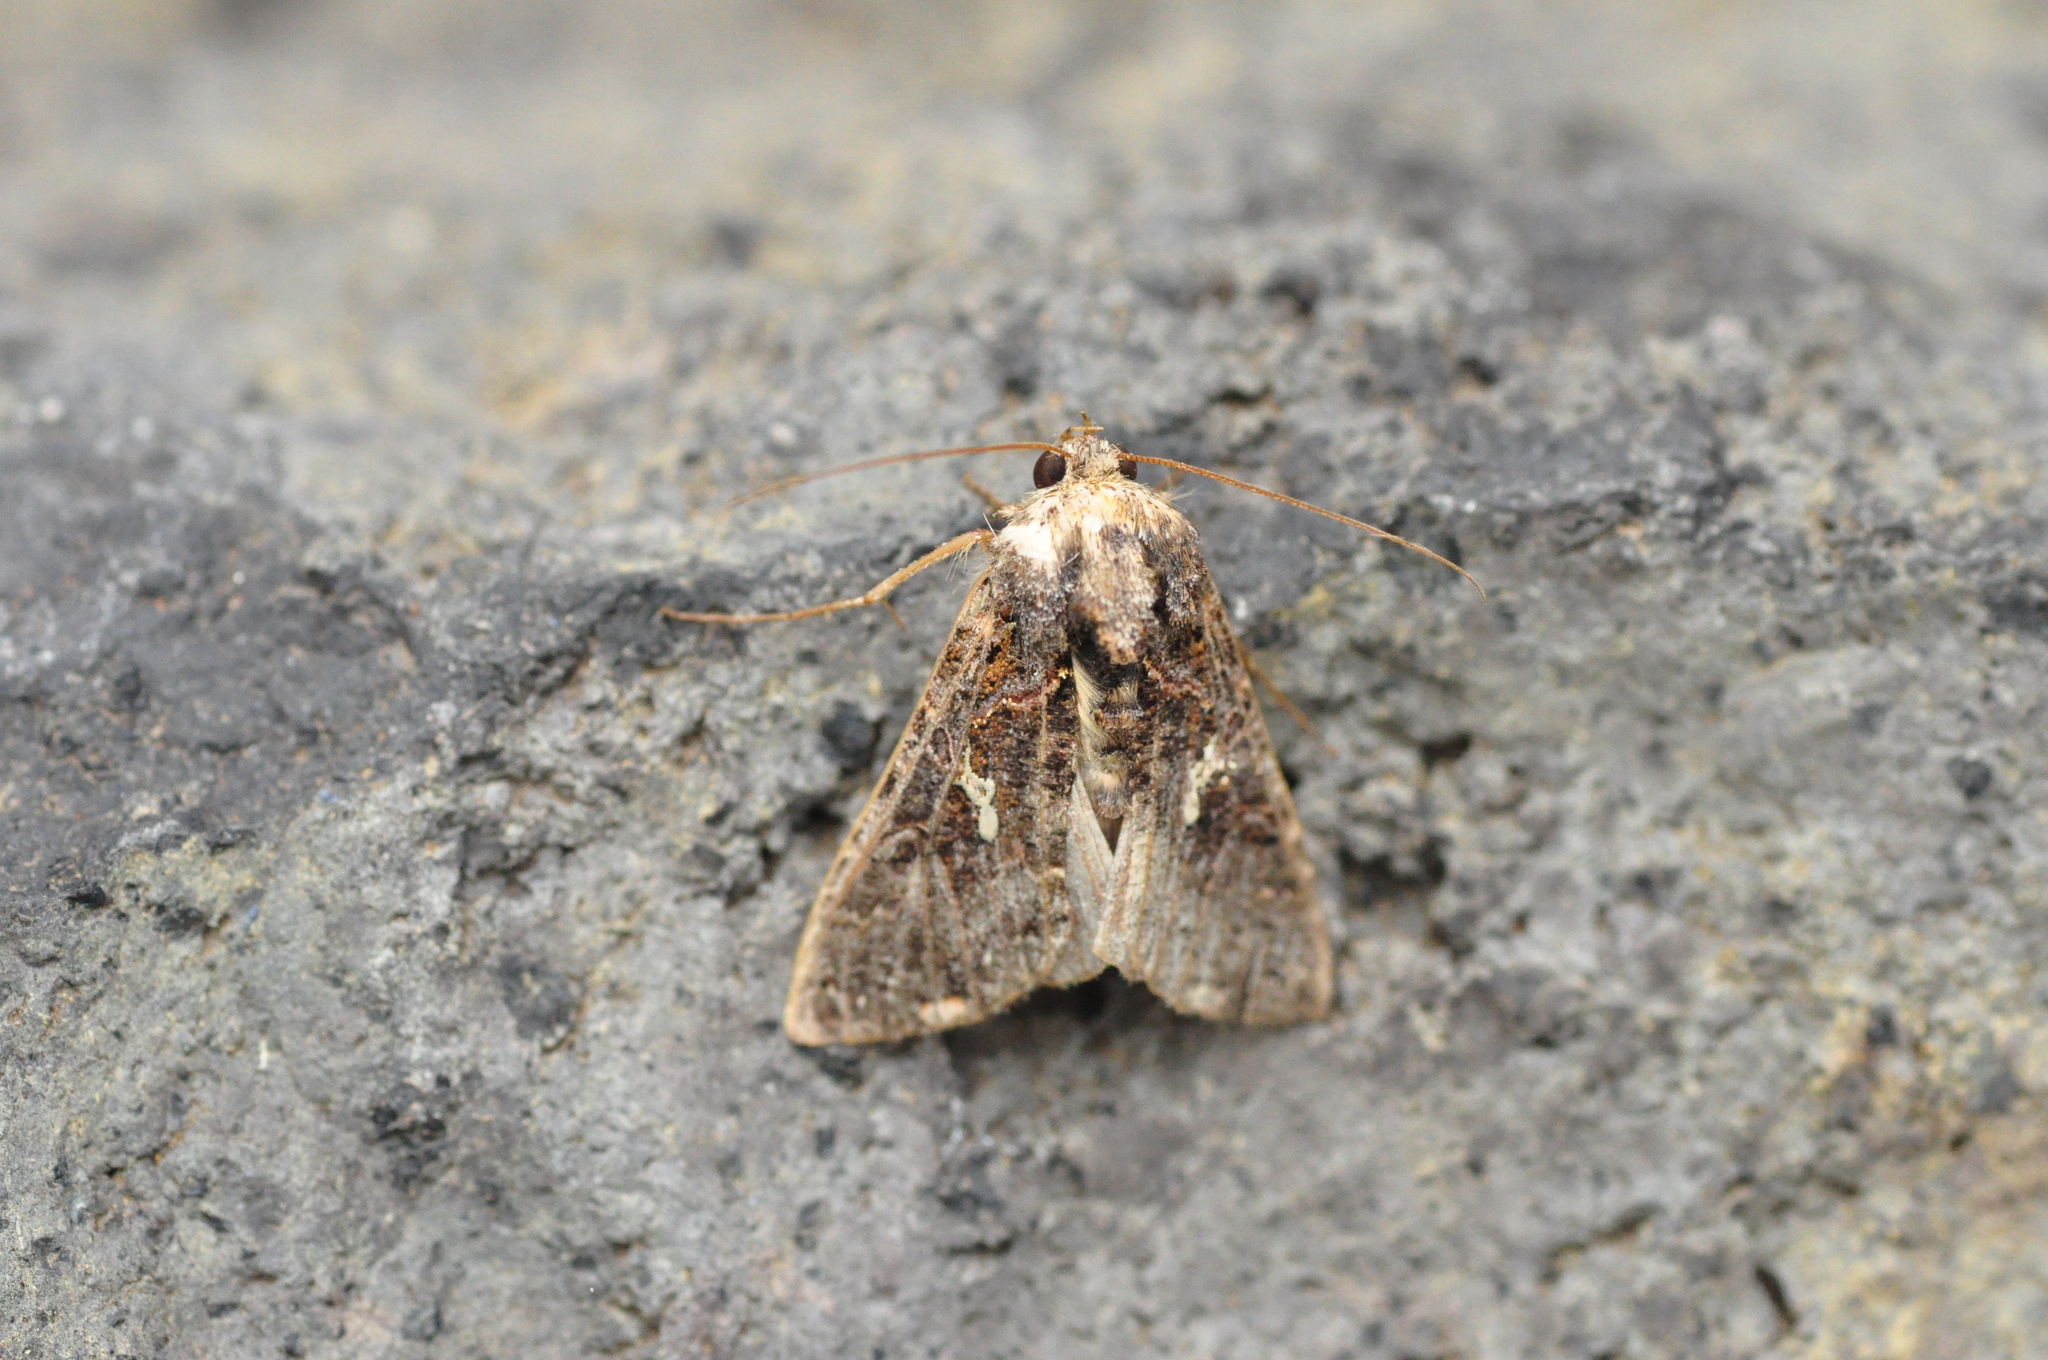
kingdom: Animalia
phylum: Arthropoda
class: Insecta
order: Lepidoptera
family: Noctuidae
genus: Ctenoplusia
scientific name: Ctenoplusia limbirena
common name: Scar bank gem
